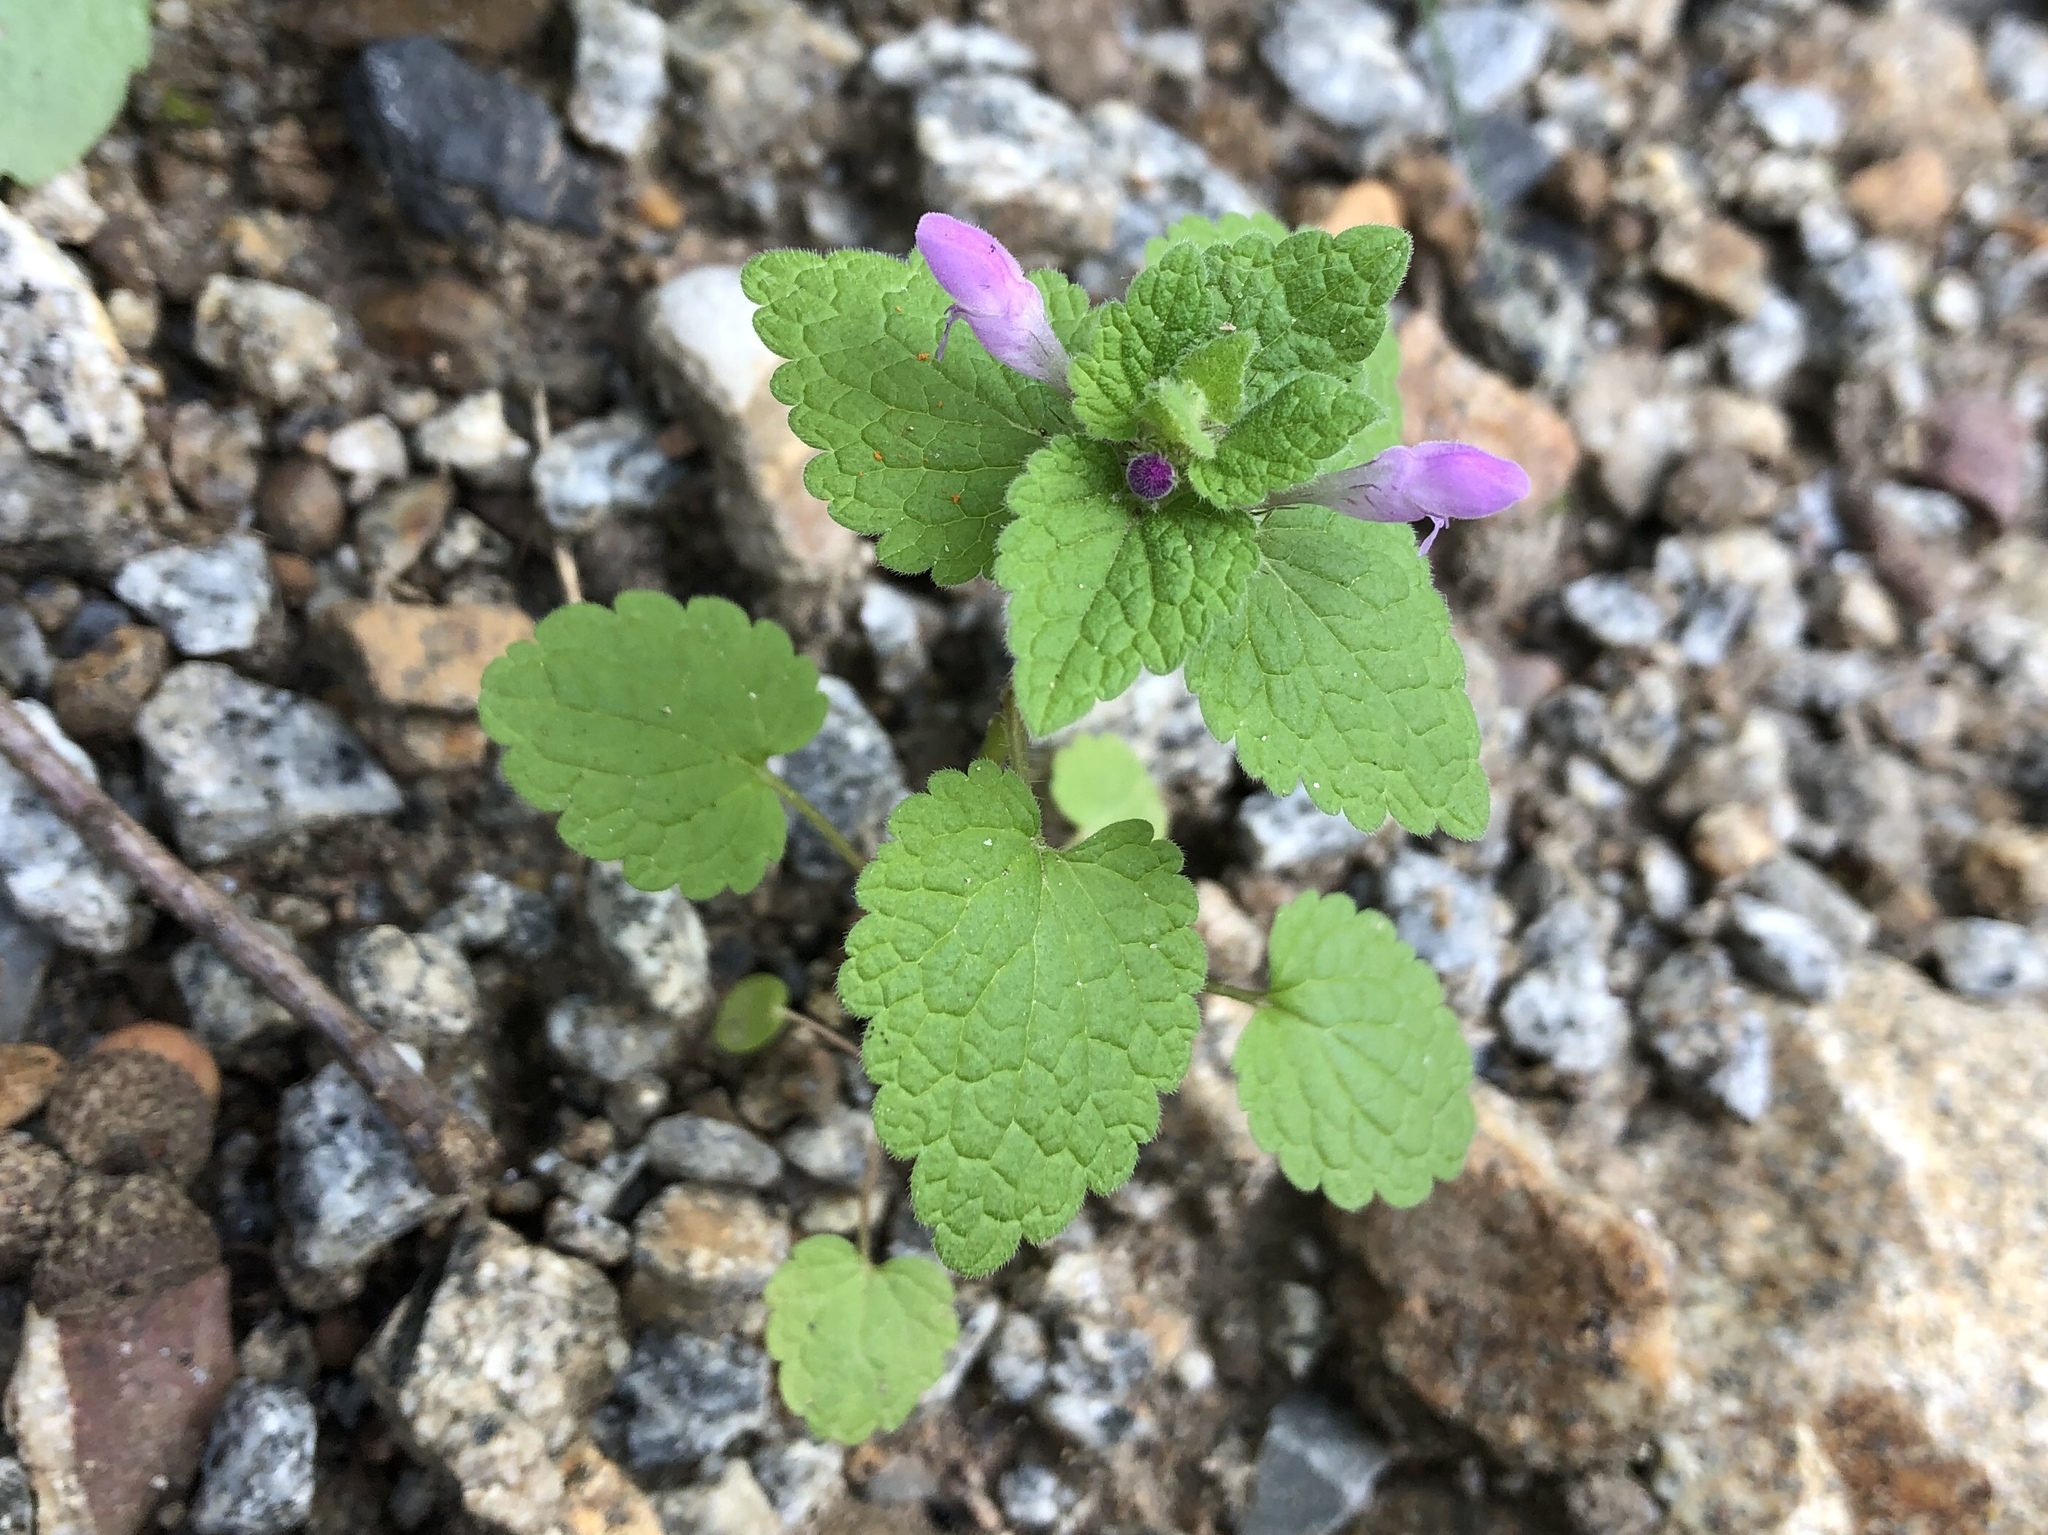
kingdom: Plantae
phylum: Tracheophyta
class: Magnoliopsida
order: Lamiales
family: Lamiaceae
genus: Lamium
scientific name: Lamium purpureum
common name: Red dead-nettle
